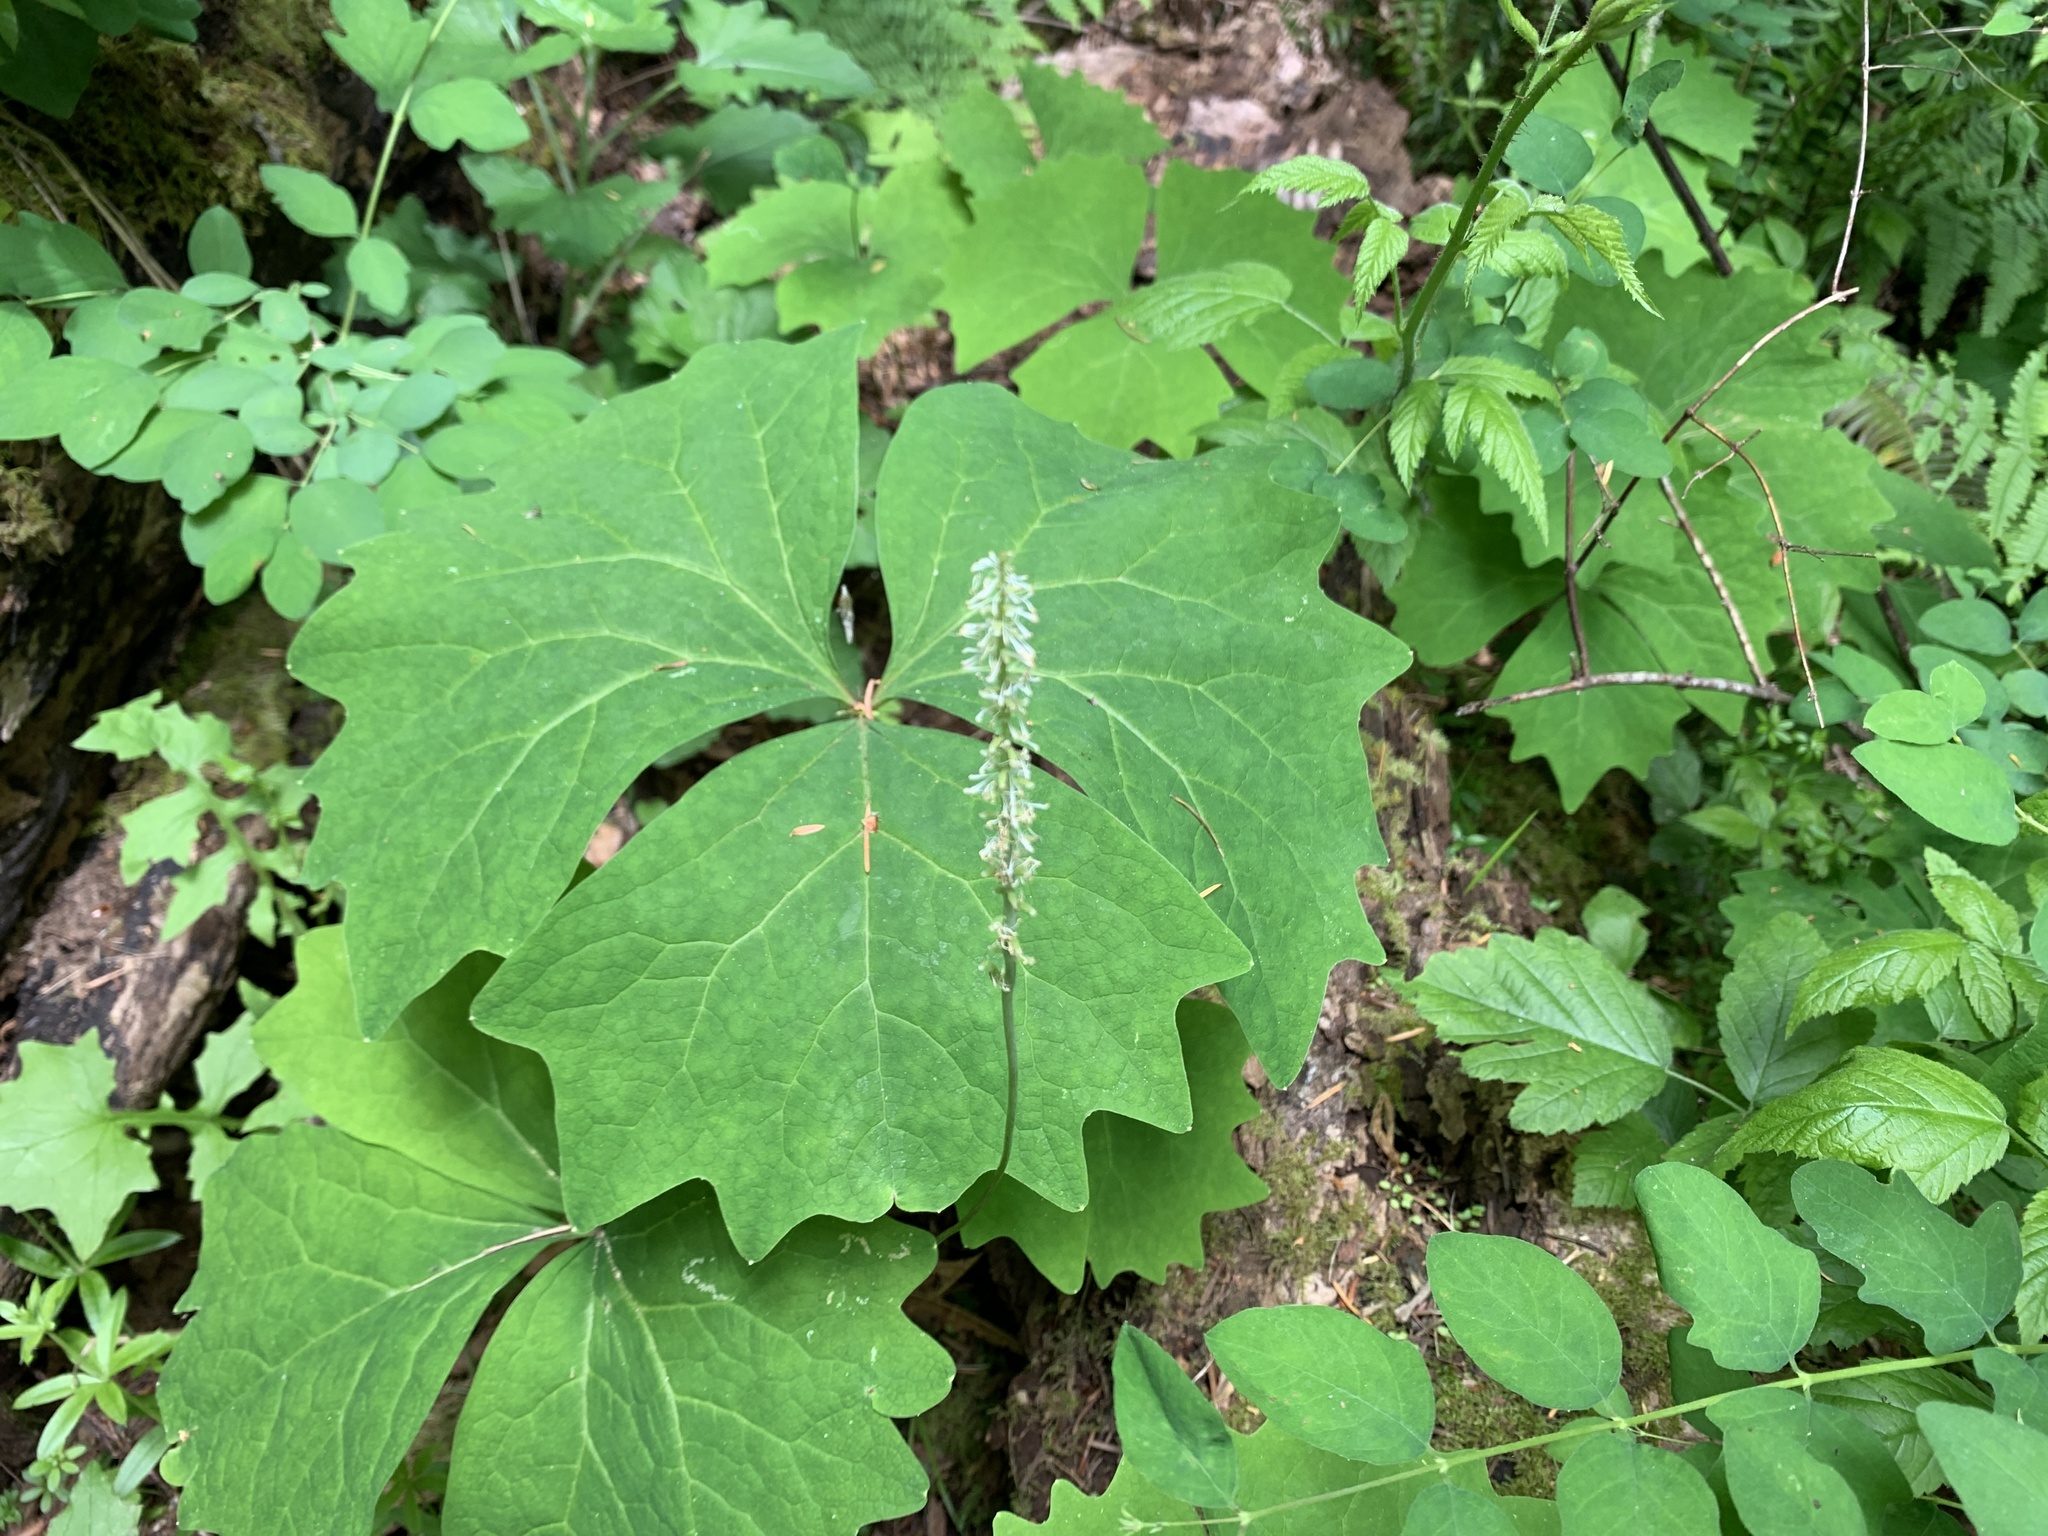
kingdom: Plantae
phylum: Tracheophyta
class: Magnoliopsida
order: Ranunculales
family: Berberidaceae
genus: Achlys
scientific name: Achlys triphylla
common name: Vanilla-leaf
